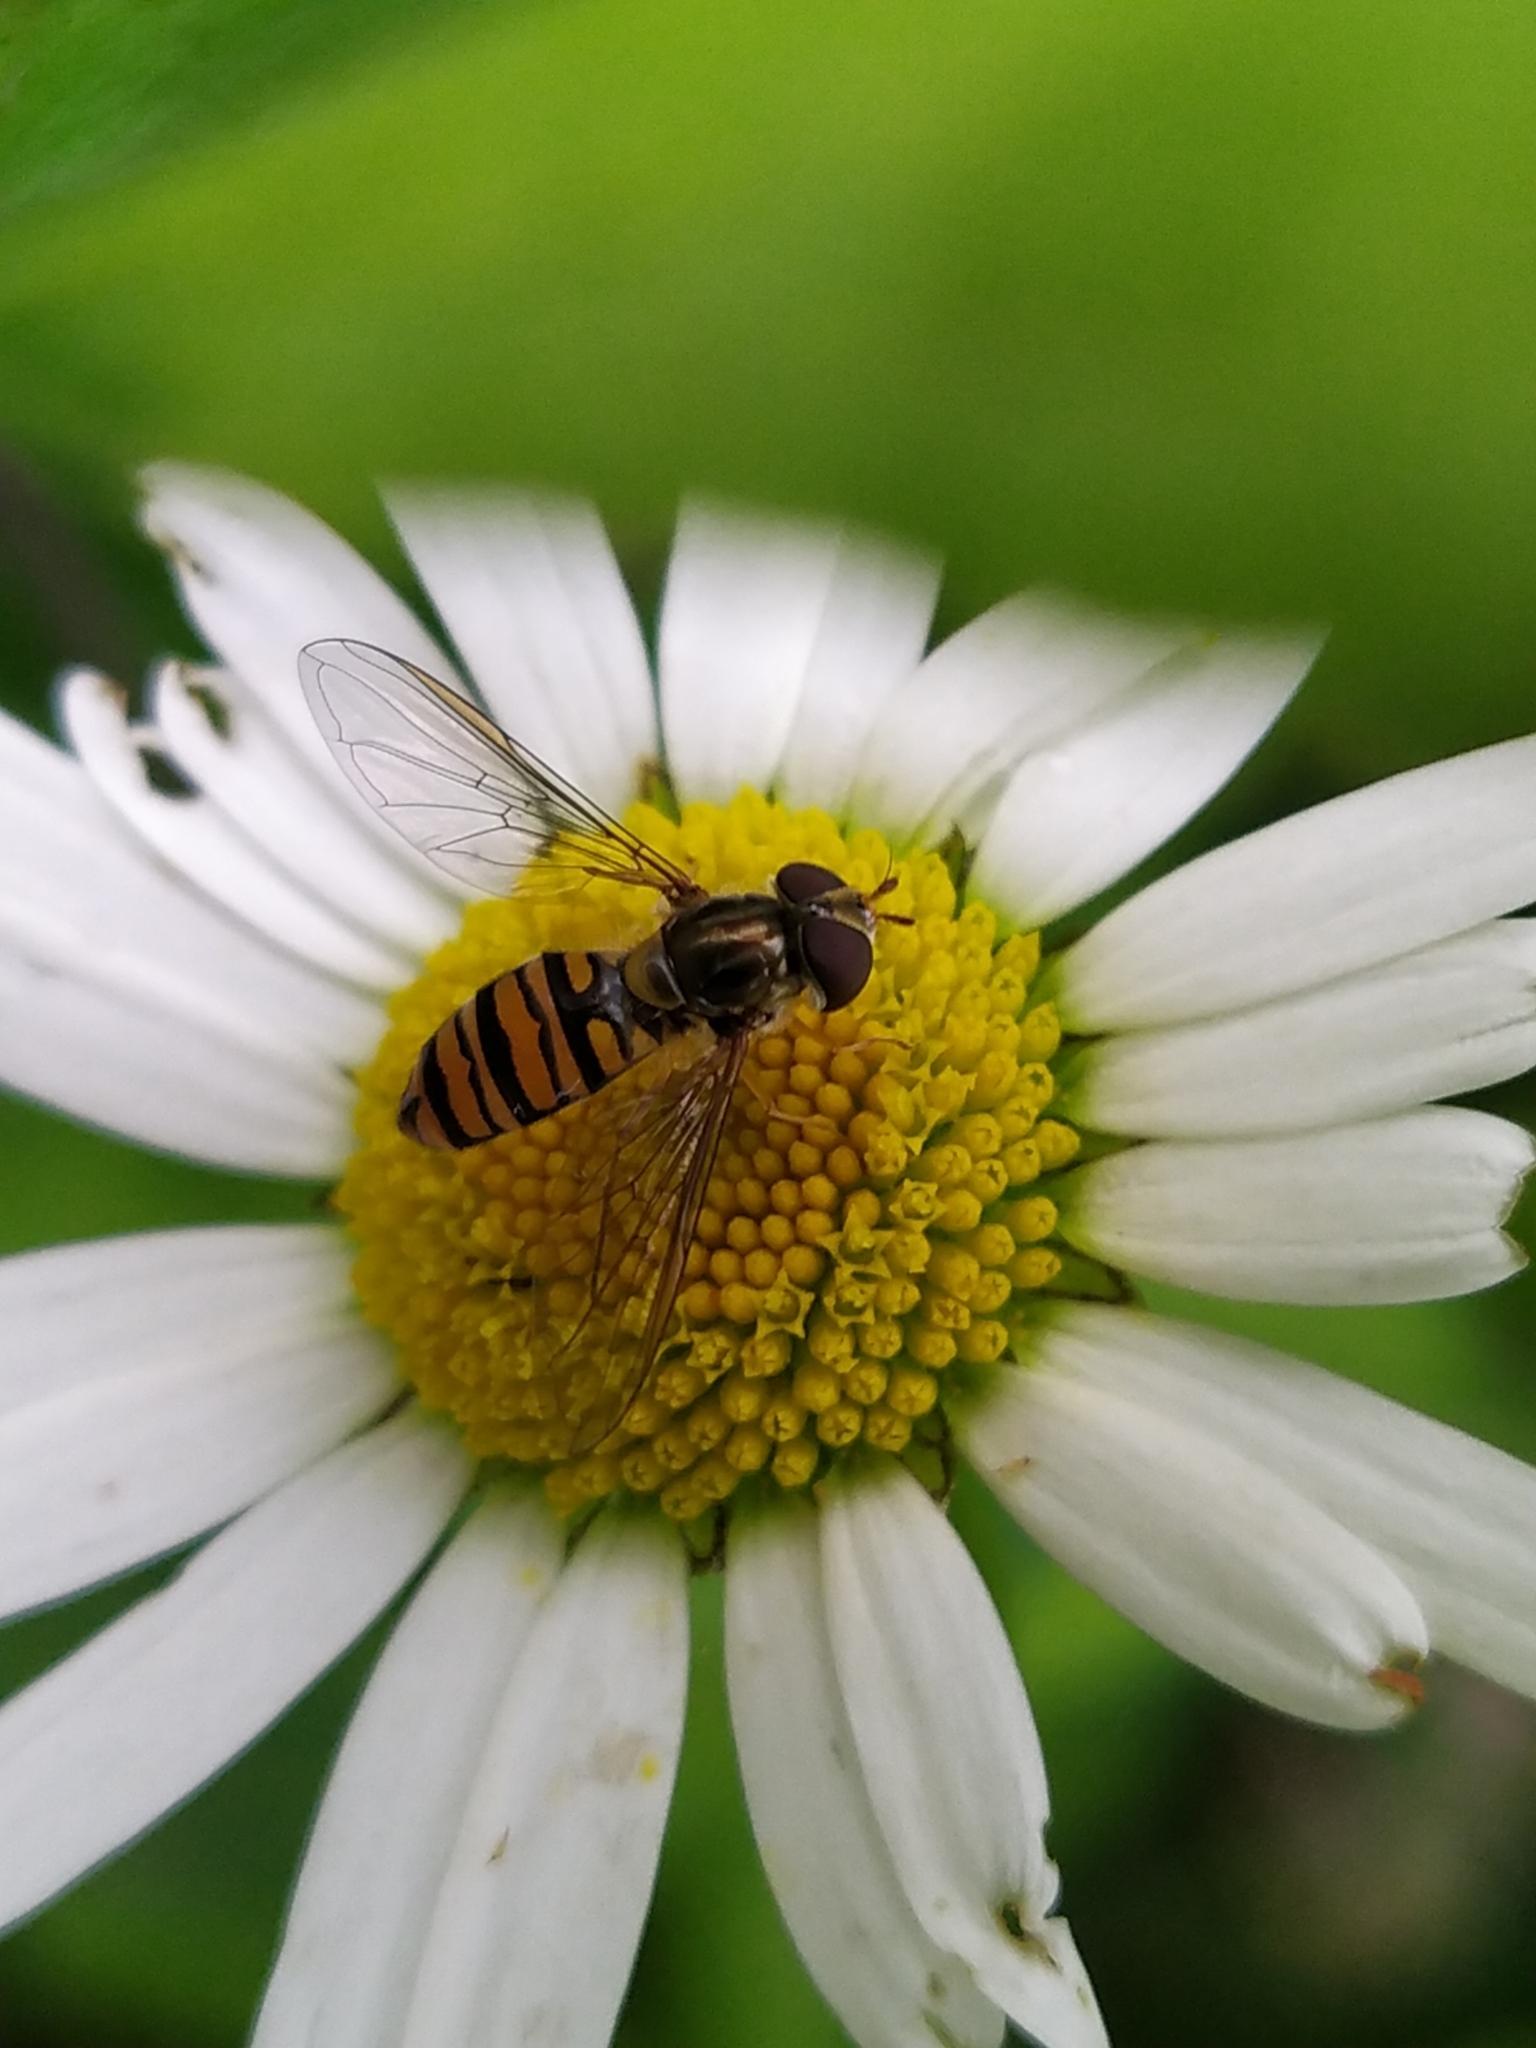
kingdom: Animalia
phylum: Arthropoda
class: Insecta
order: Diptera
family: Syrphidae
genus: Episyrphus
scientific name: Episyrphus balteatus
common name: Marmalade hoverfly
